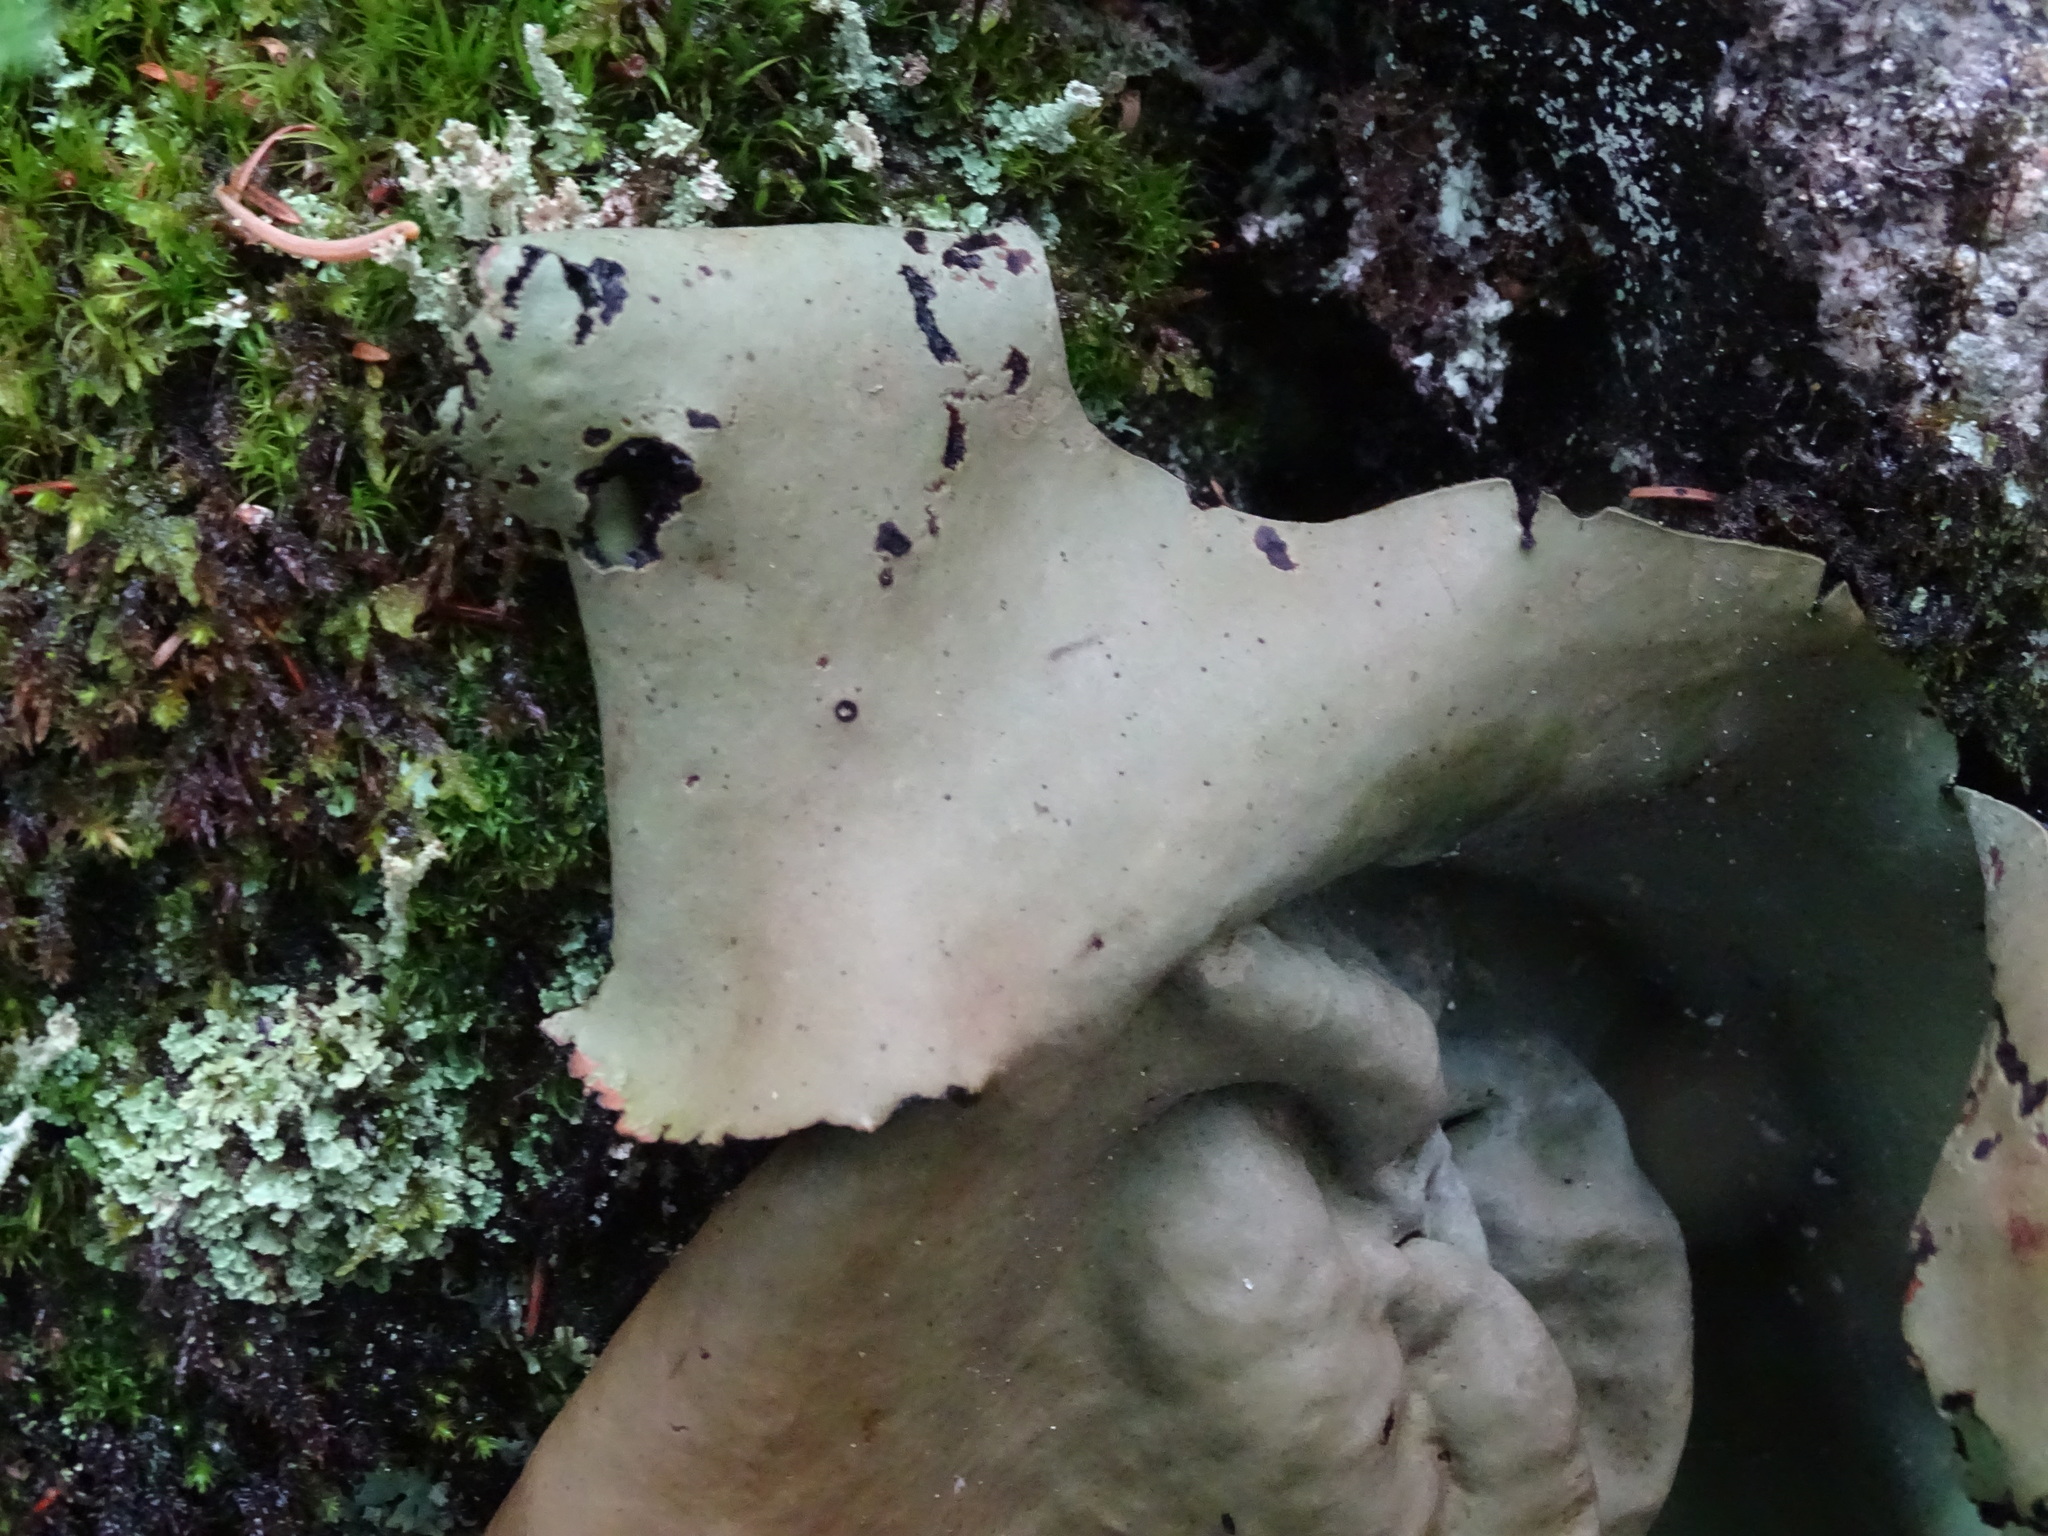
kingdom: Fungi
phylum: Ascomycota
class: Lecanoromycetes
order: Umbilicariales
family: Umbilicariaceae
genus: Umbilicaria
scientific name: Umbilicaria mammulata
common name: Smooth rock tripe
